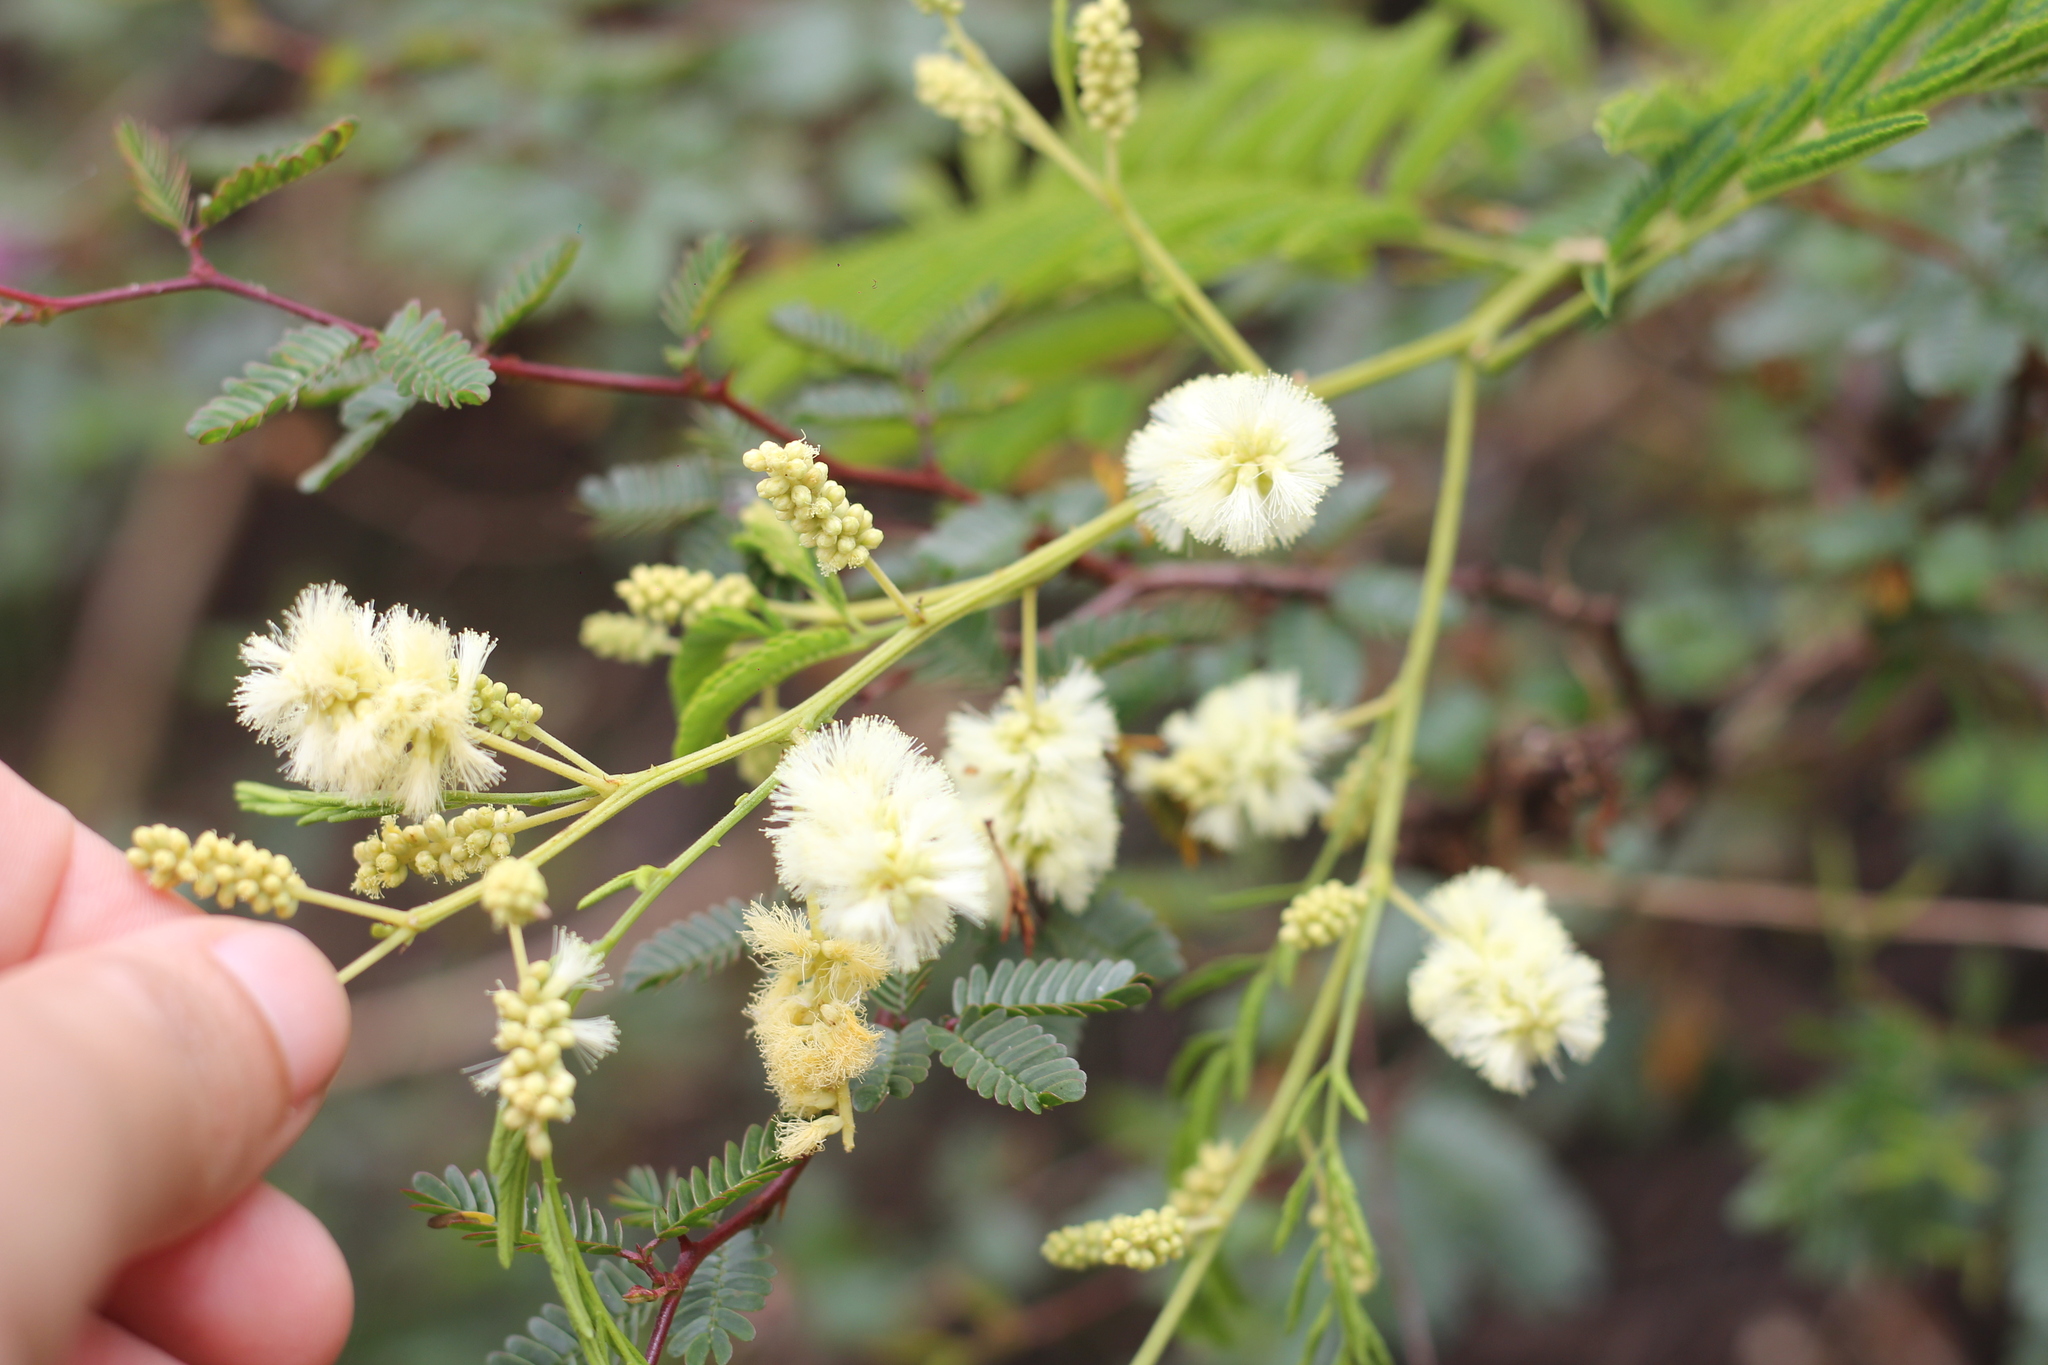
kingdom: Plantae
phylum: Tracheophyta
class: Magnoliopsida
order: Fabales
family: Fabaceae
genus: Senegalia
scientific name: Senegalia bonariensis
